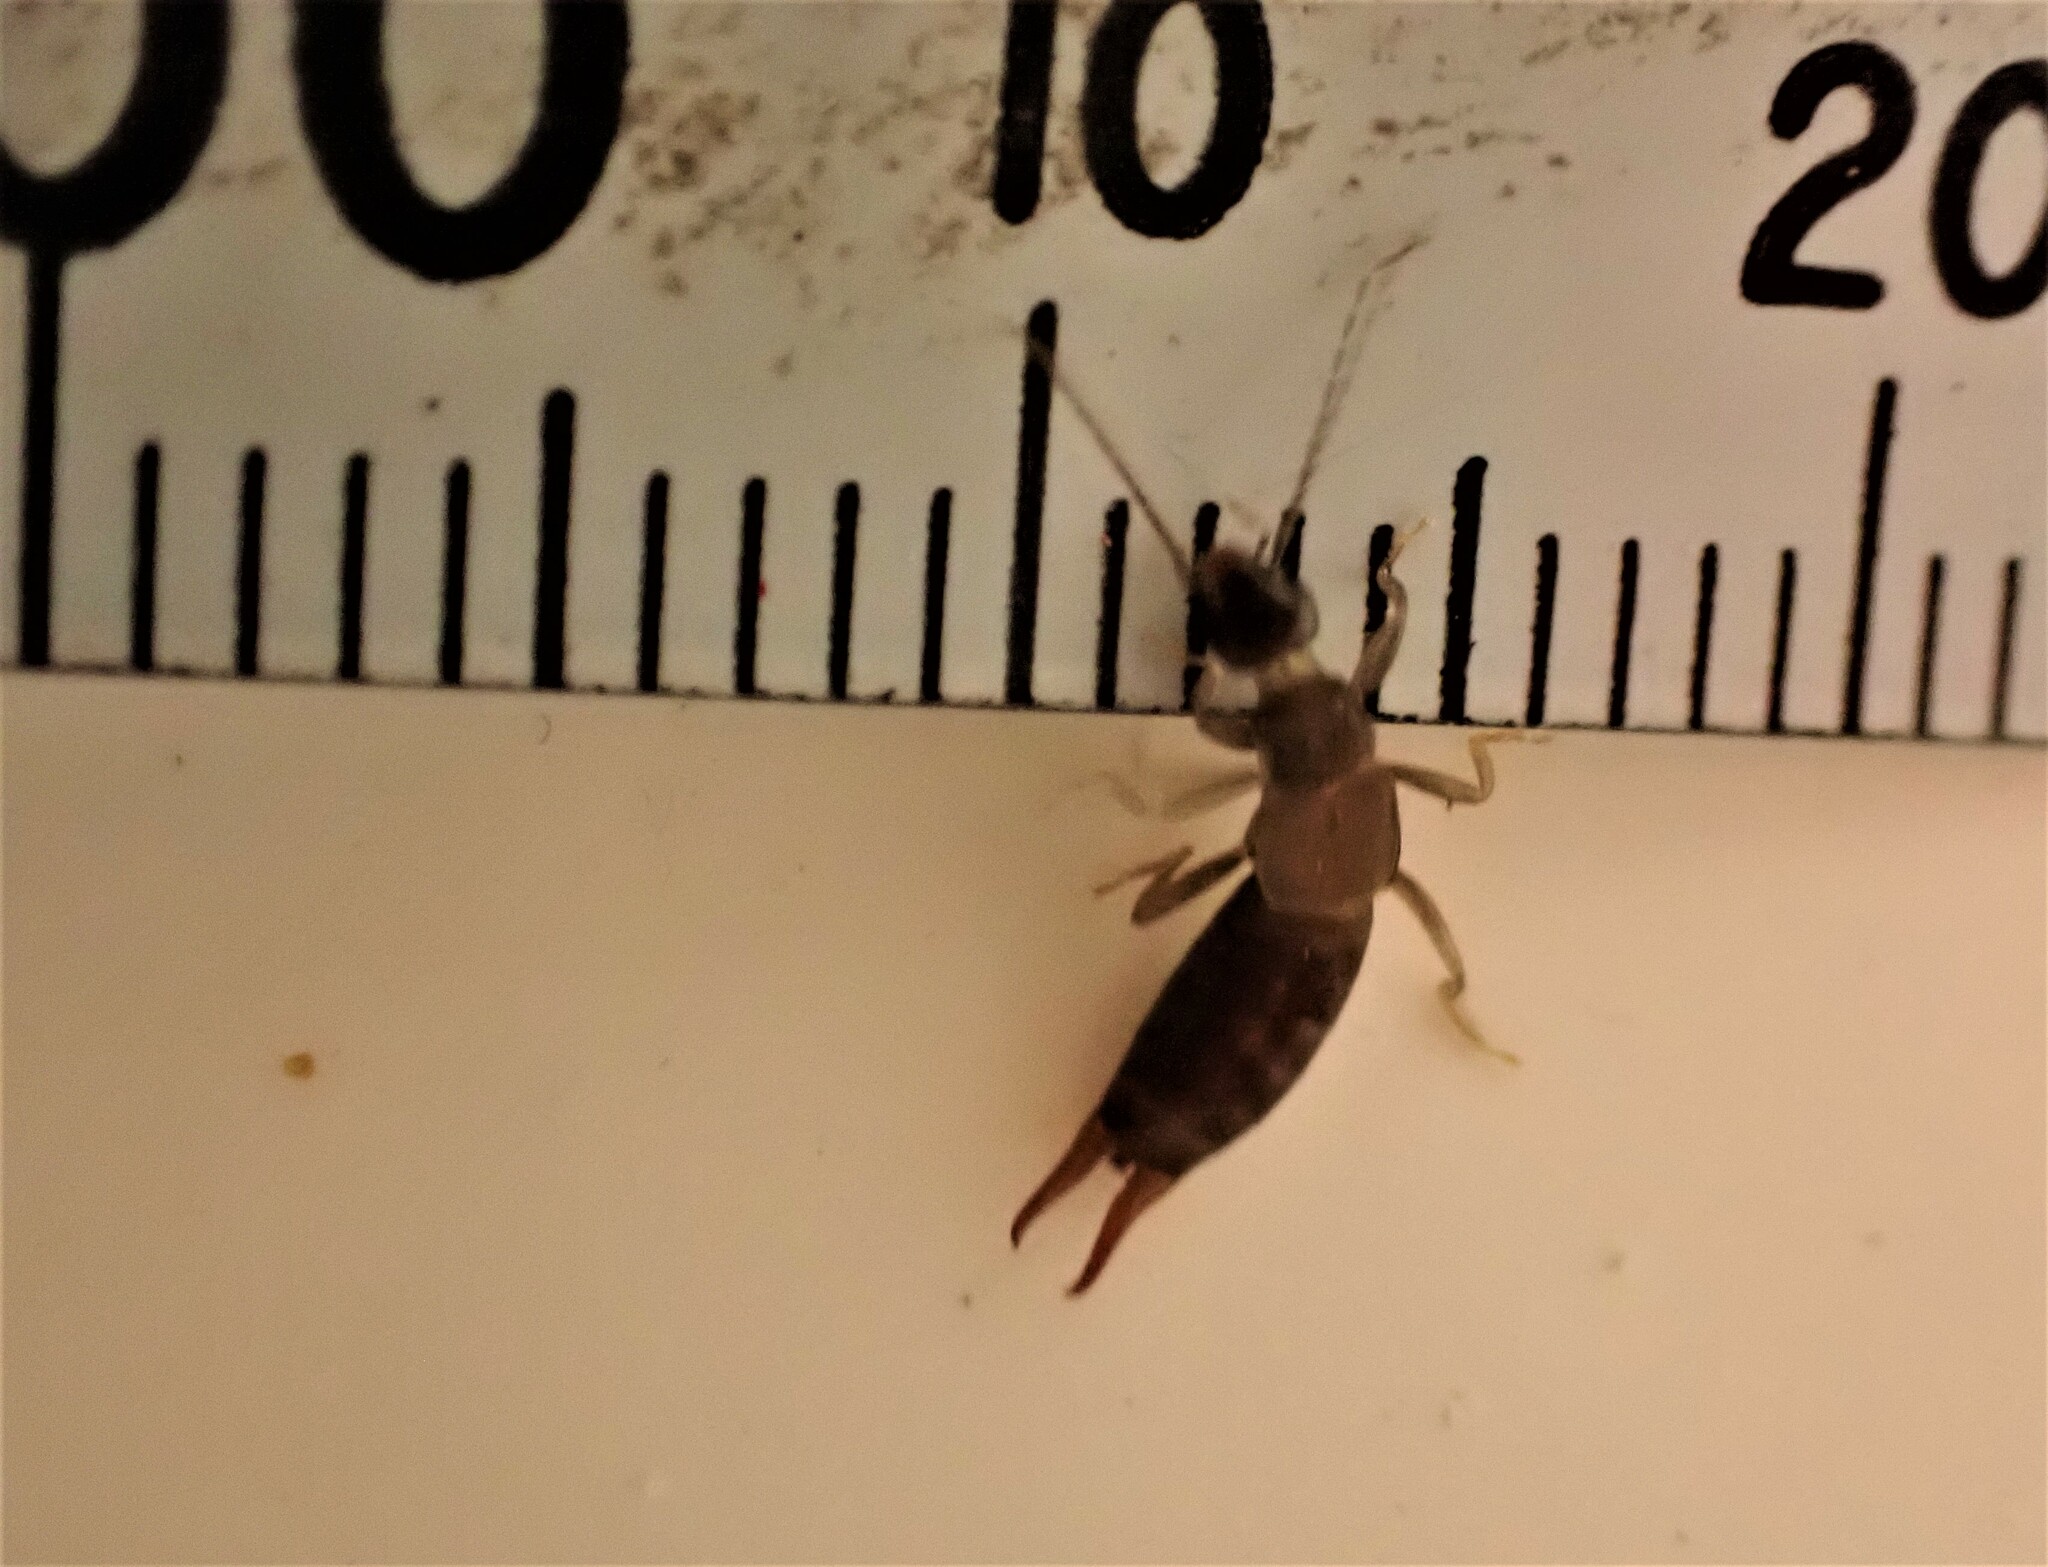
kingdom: Animalia
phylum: Arthropoda
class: Insecta
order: Dermaptera
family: Spongiphoridae
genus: Nesogaster
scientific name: Nesogaster halli
